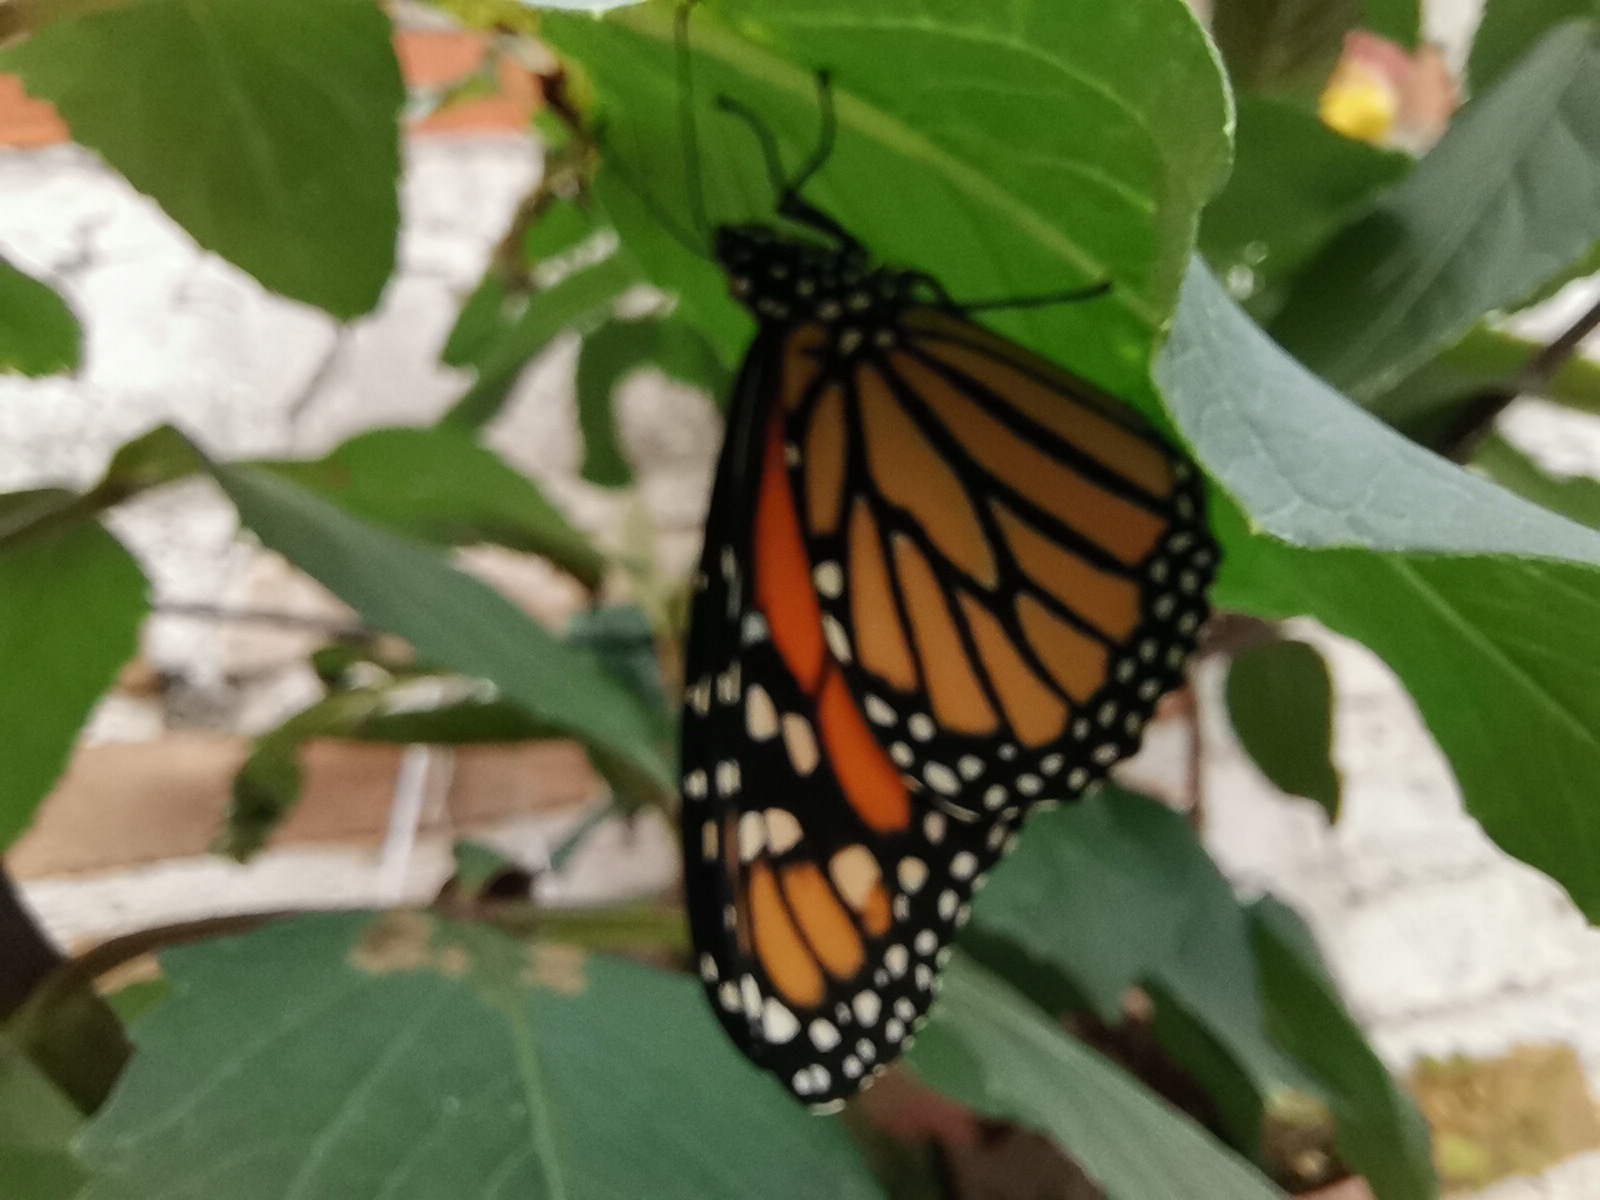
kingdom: Animalia
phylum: Arthropoda
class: Insecta
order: Lepidoptera
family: Nymphalidae
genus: Danaus
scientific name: Danaus plexippus
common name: Monarch
